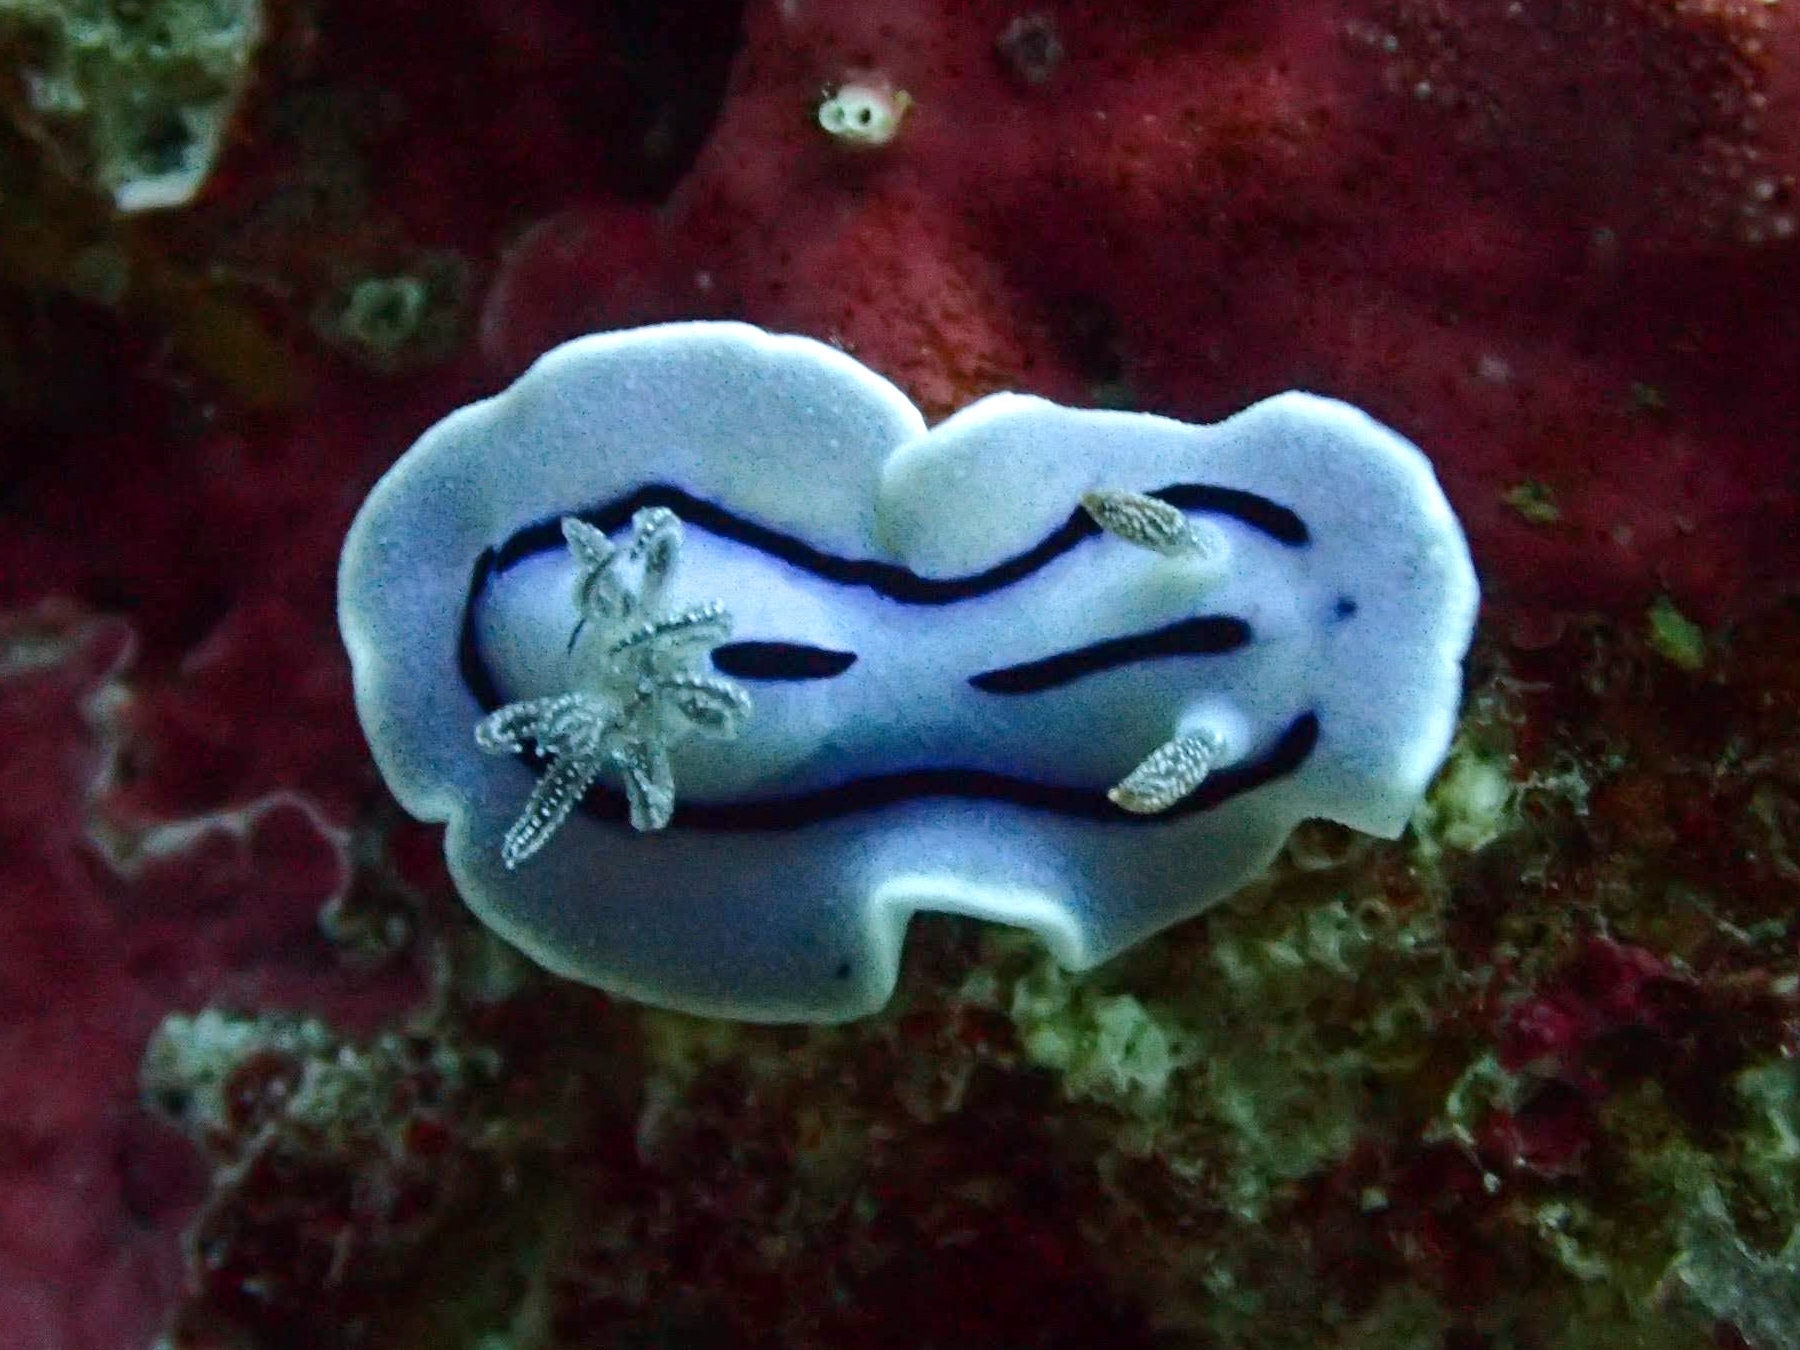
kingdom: Animalia
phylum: Mollusca
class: Gastropoda
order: Nudibranchia
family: Chromodorididae
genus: Chromodoris
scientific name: Chromodoris willani
